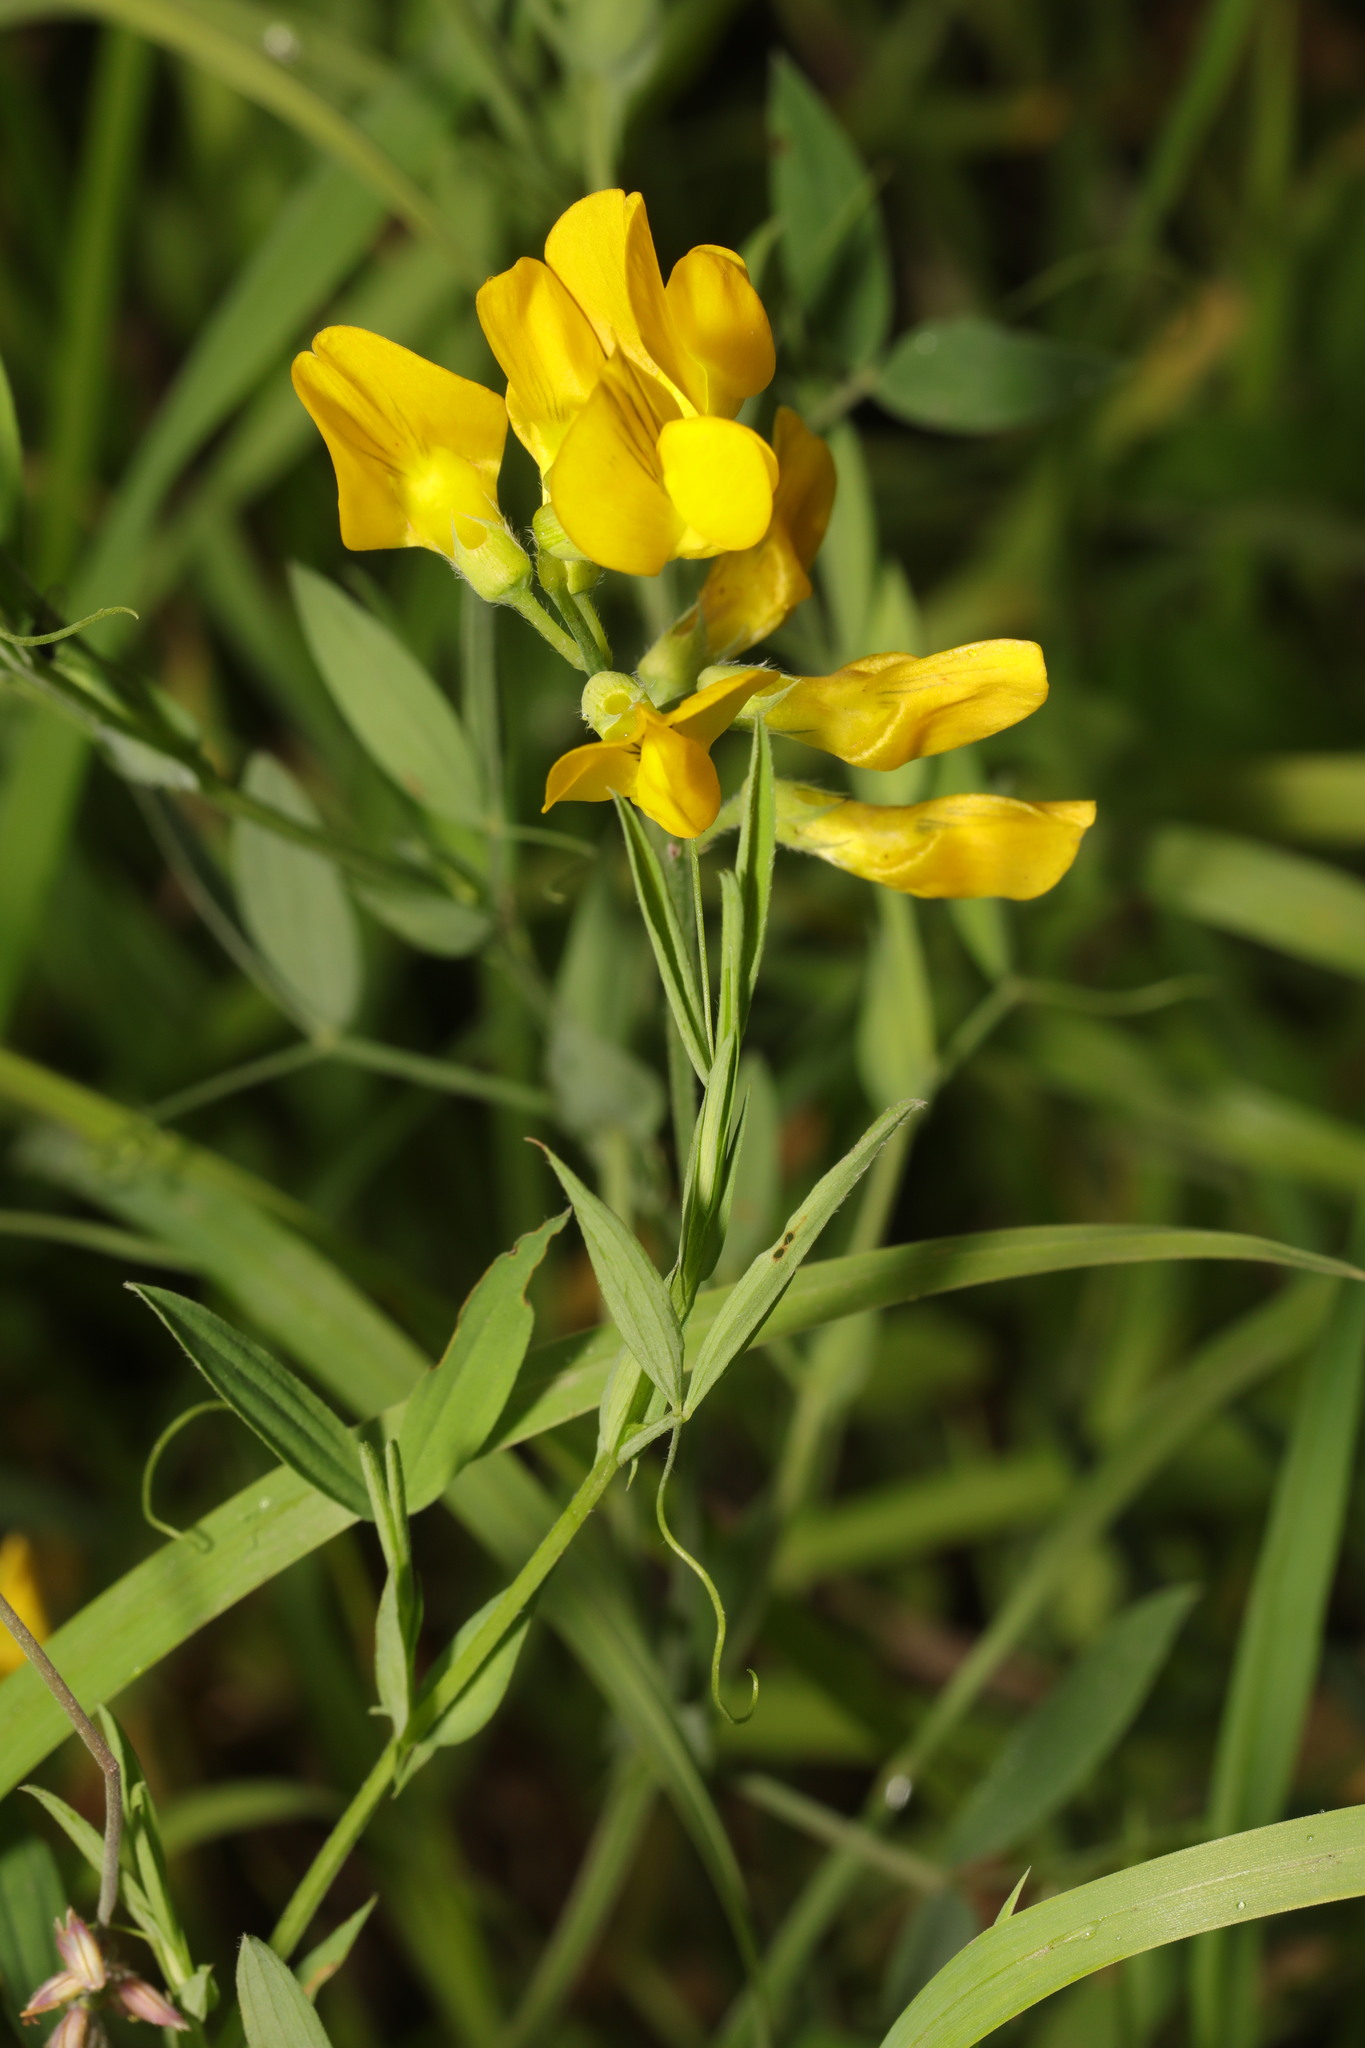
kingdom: Plantae
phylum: Tracheophyta
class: Magnoliopsida
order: Fabales
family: Fabaceae
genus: Lathyrus
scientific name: Lathyrus pratensis
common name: Meadow vetchling
